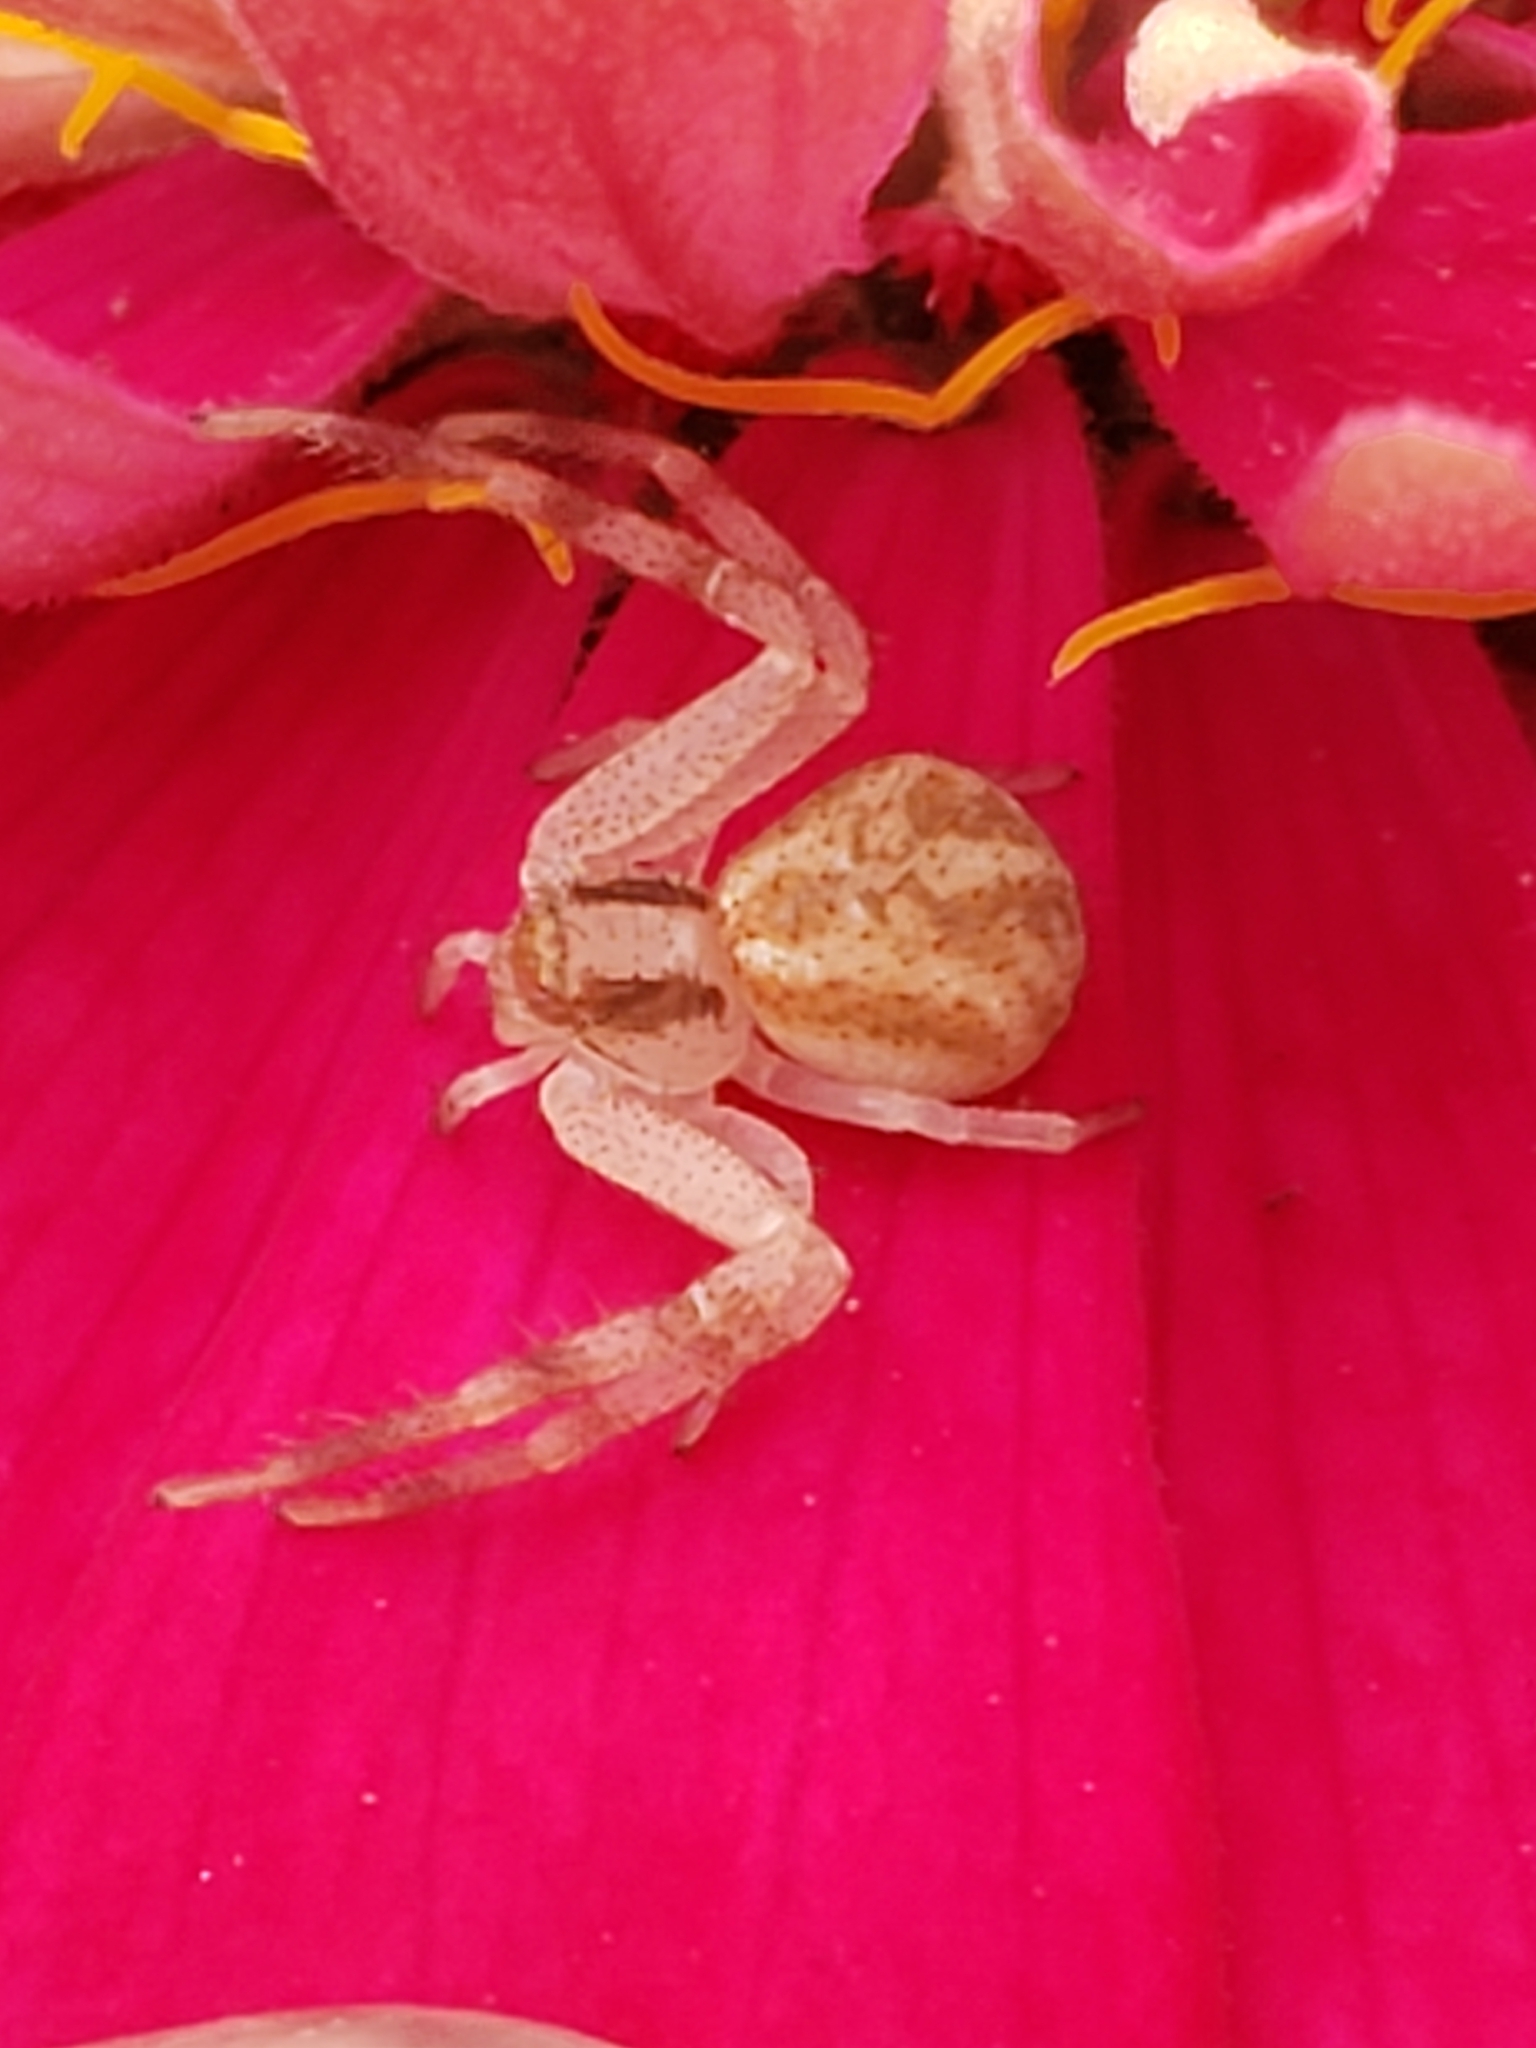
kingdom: Animalia
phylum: Arthropoda
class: Arachnida
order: Araneae
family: Thomisidae
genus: Mecaphesa
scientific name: Mecaphesa asperata
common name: Crab spiders
